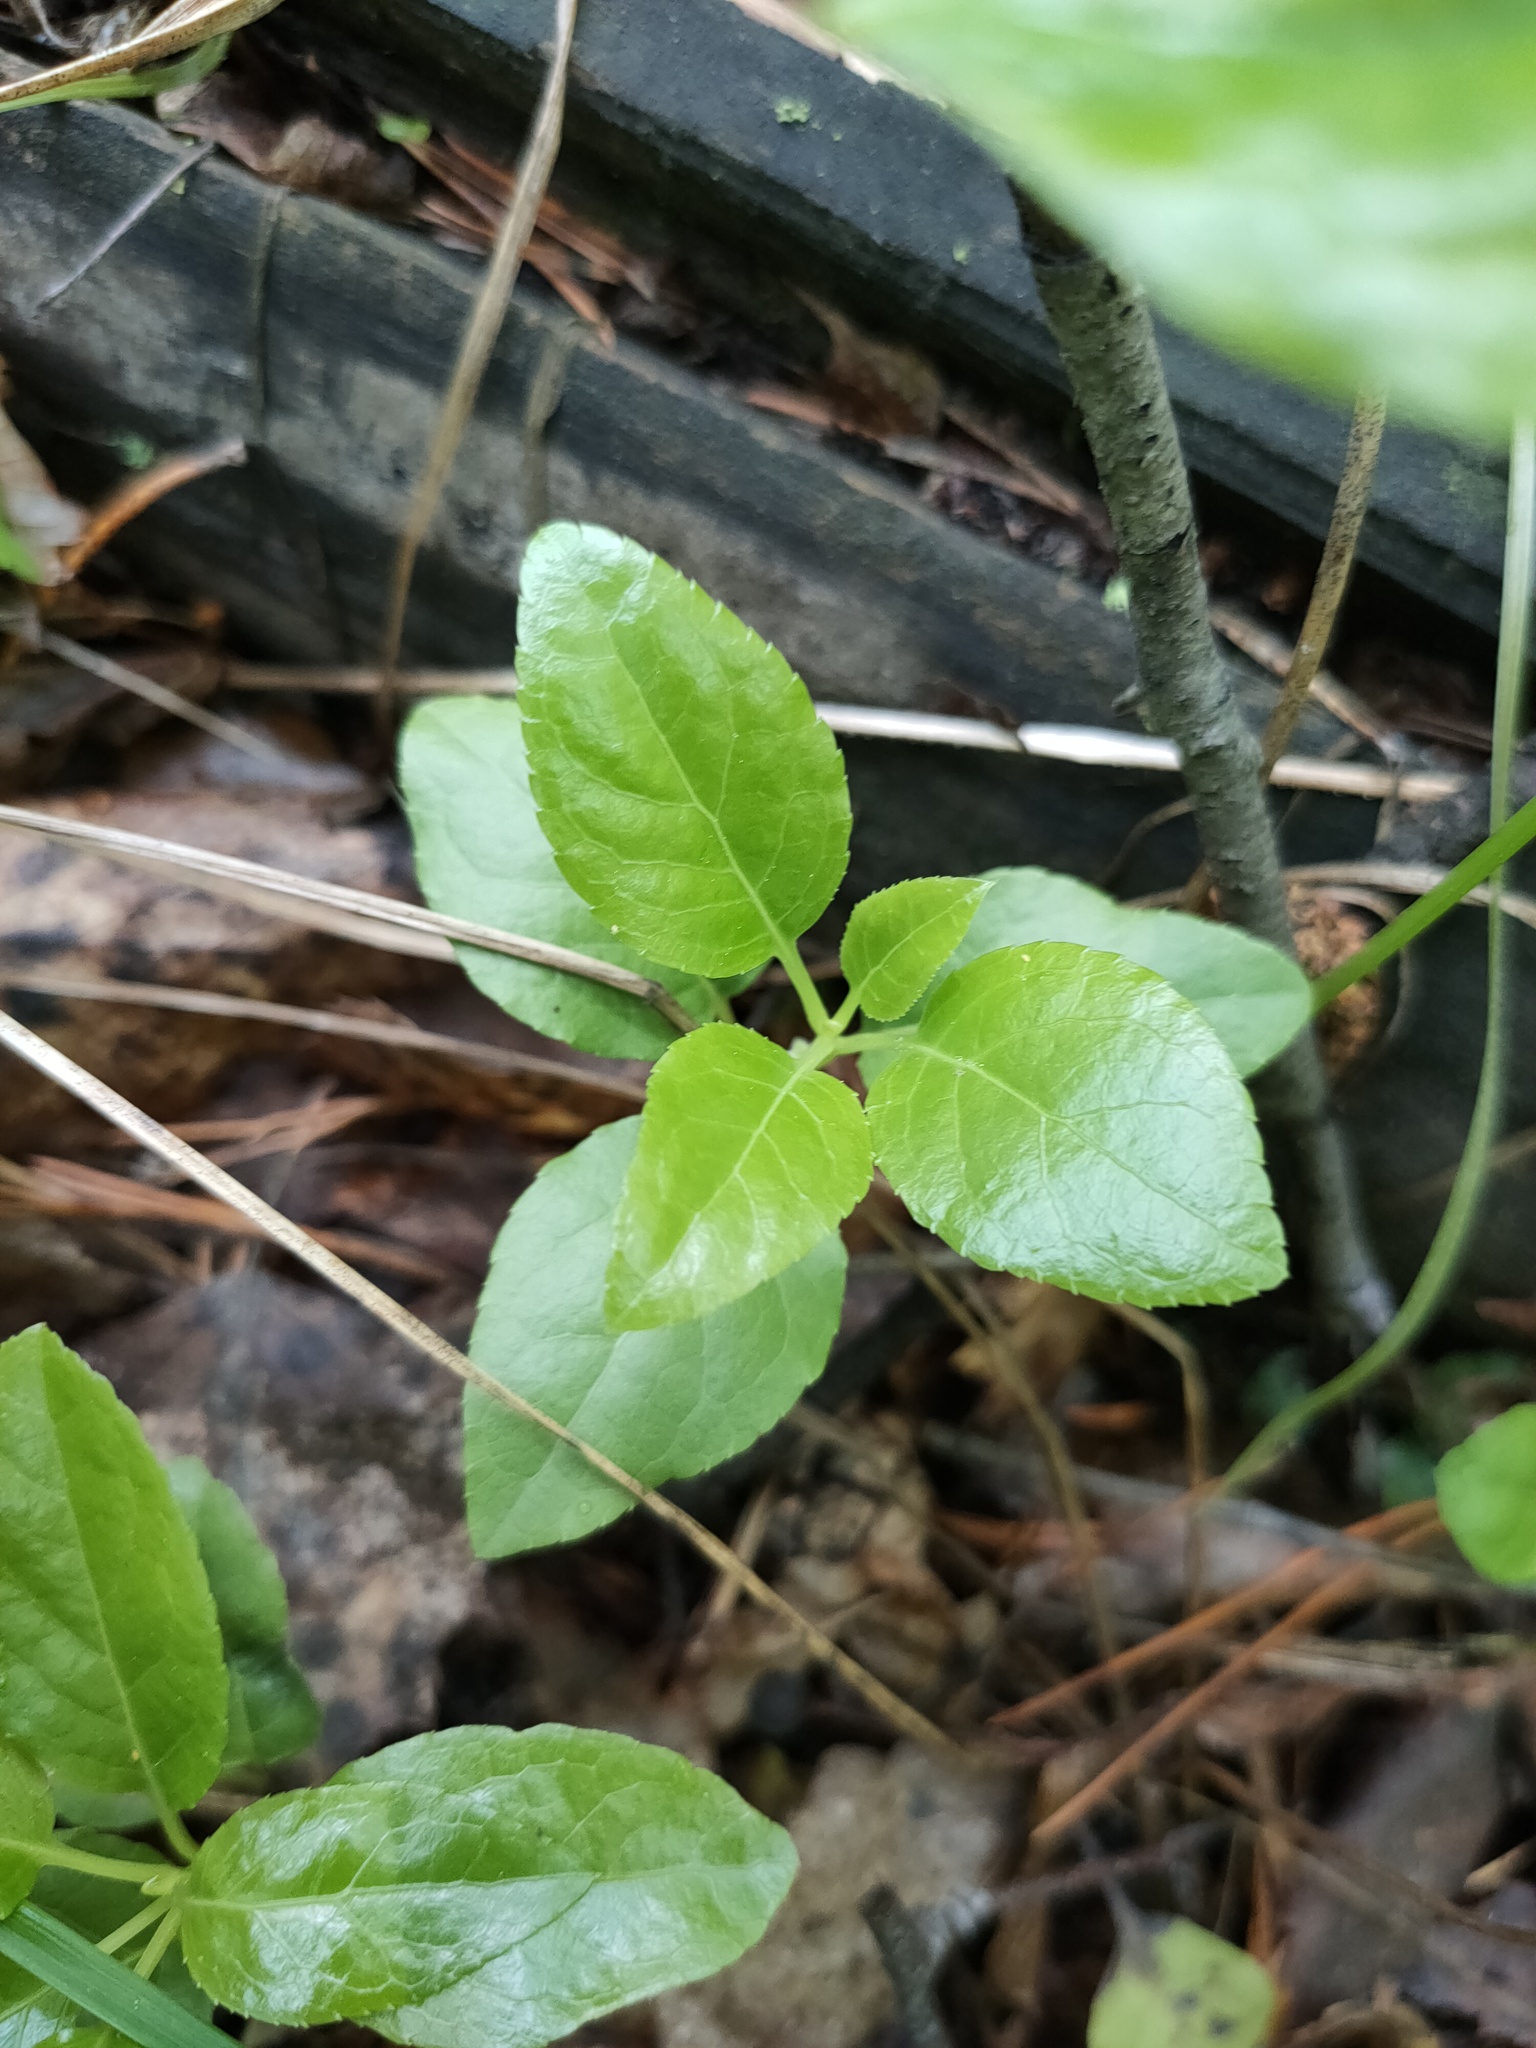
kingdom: Plantae
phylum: Tracheophyta
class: Magnoliopsida
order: Ericales
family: Ericaceae
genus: Orthilia
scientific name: Orthilia secunda
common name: One-sided orthilia
